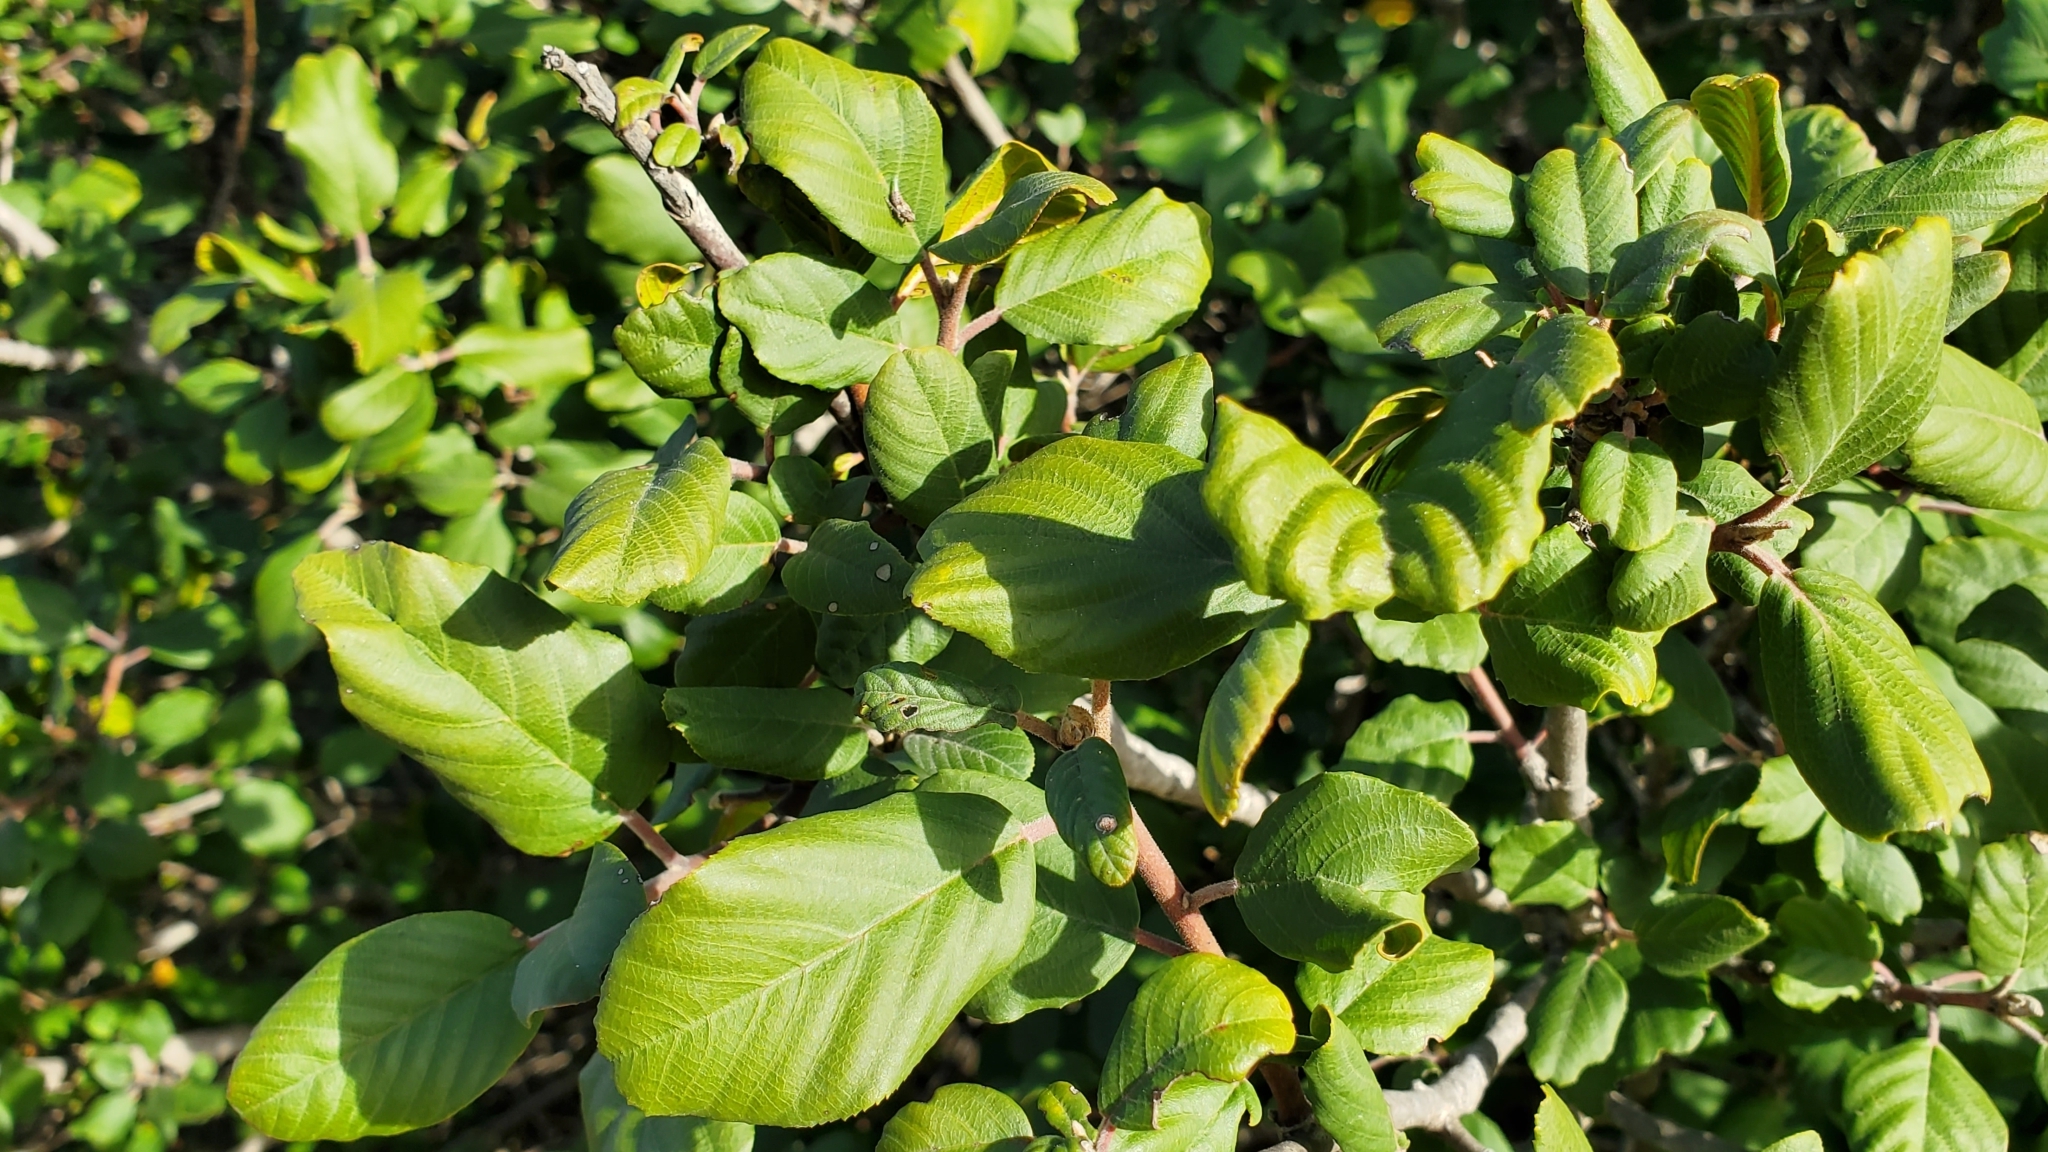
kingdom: Plantae
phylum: Tracheophyta
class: Magnoliopsida
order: Rosales
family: Rhamnaceae
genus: Frangula
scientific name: Frangula californica
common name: California buckthorn
